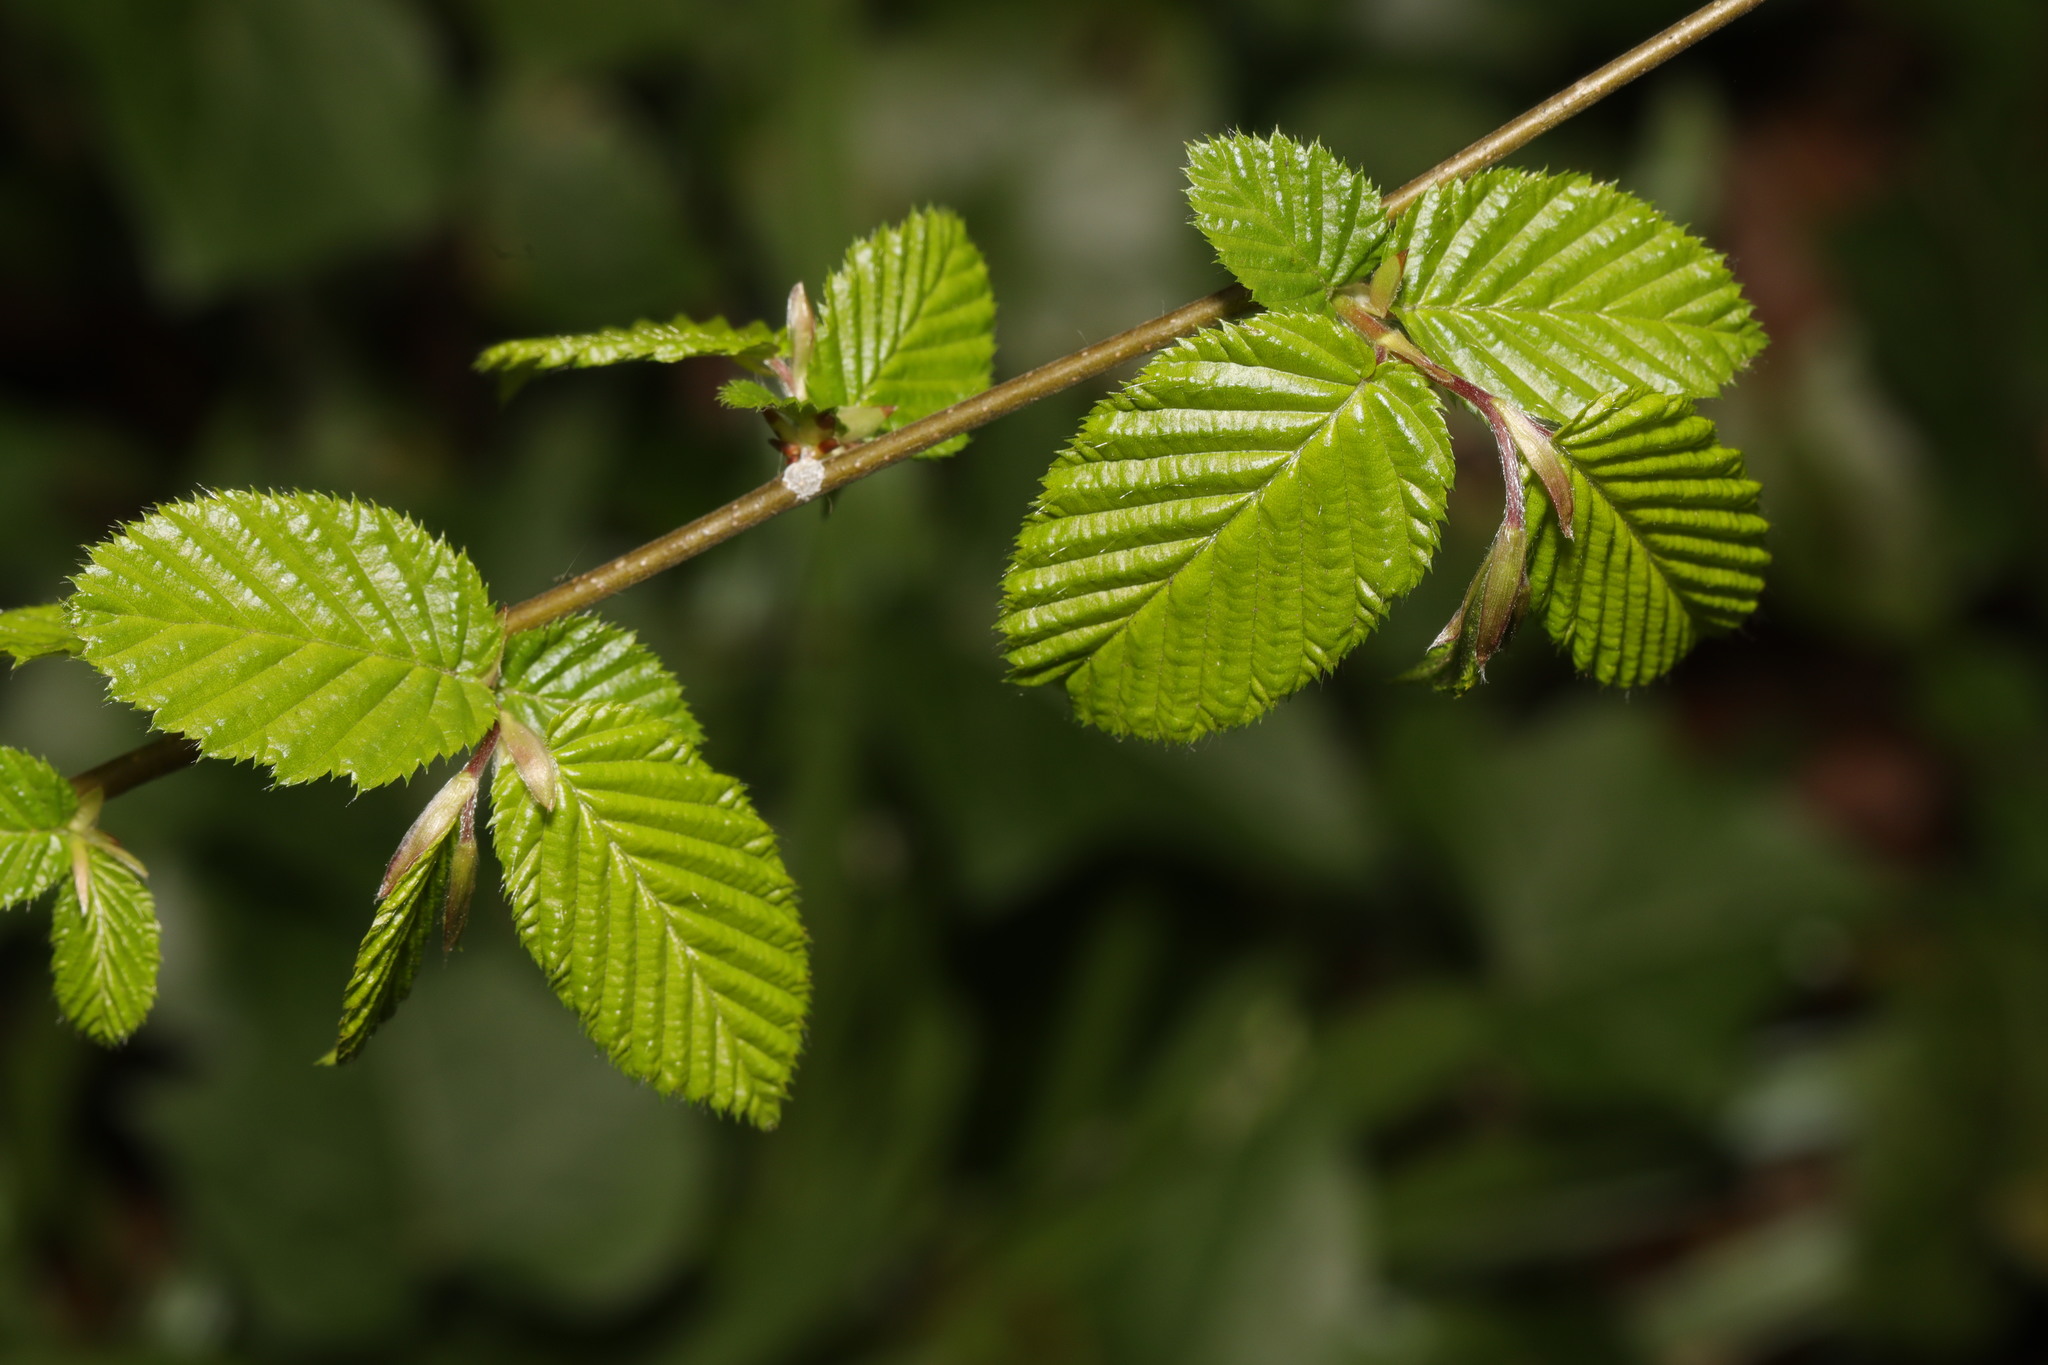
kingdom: Plantae
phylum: Tracheophyta
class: Magnoliopsida
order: Fagales
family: Betulaceae
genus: Carpinus
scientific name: Carpinus betulus
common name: Hornbeam
